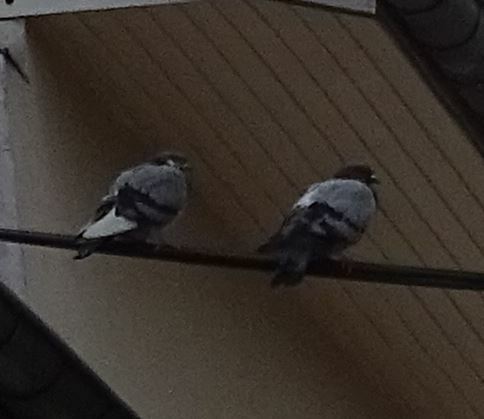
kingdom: Animalia
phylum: Chordata
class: Aves
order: Columbiformes
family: Columbidae
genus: Columba
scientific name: Columba livia
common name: Rock pigeon
